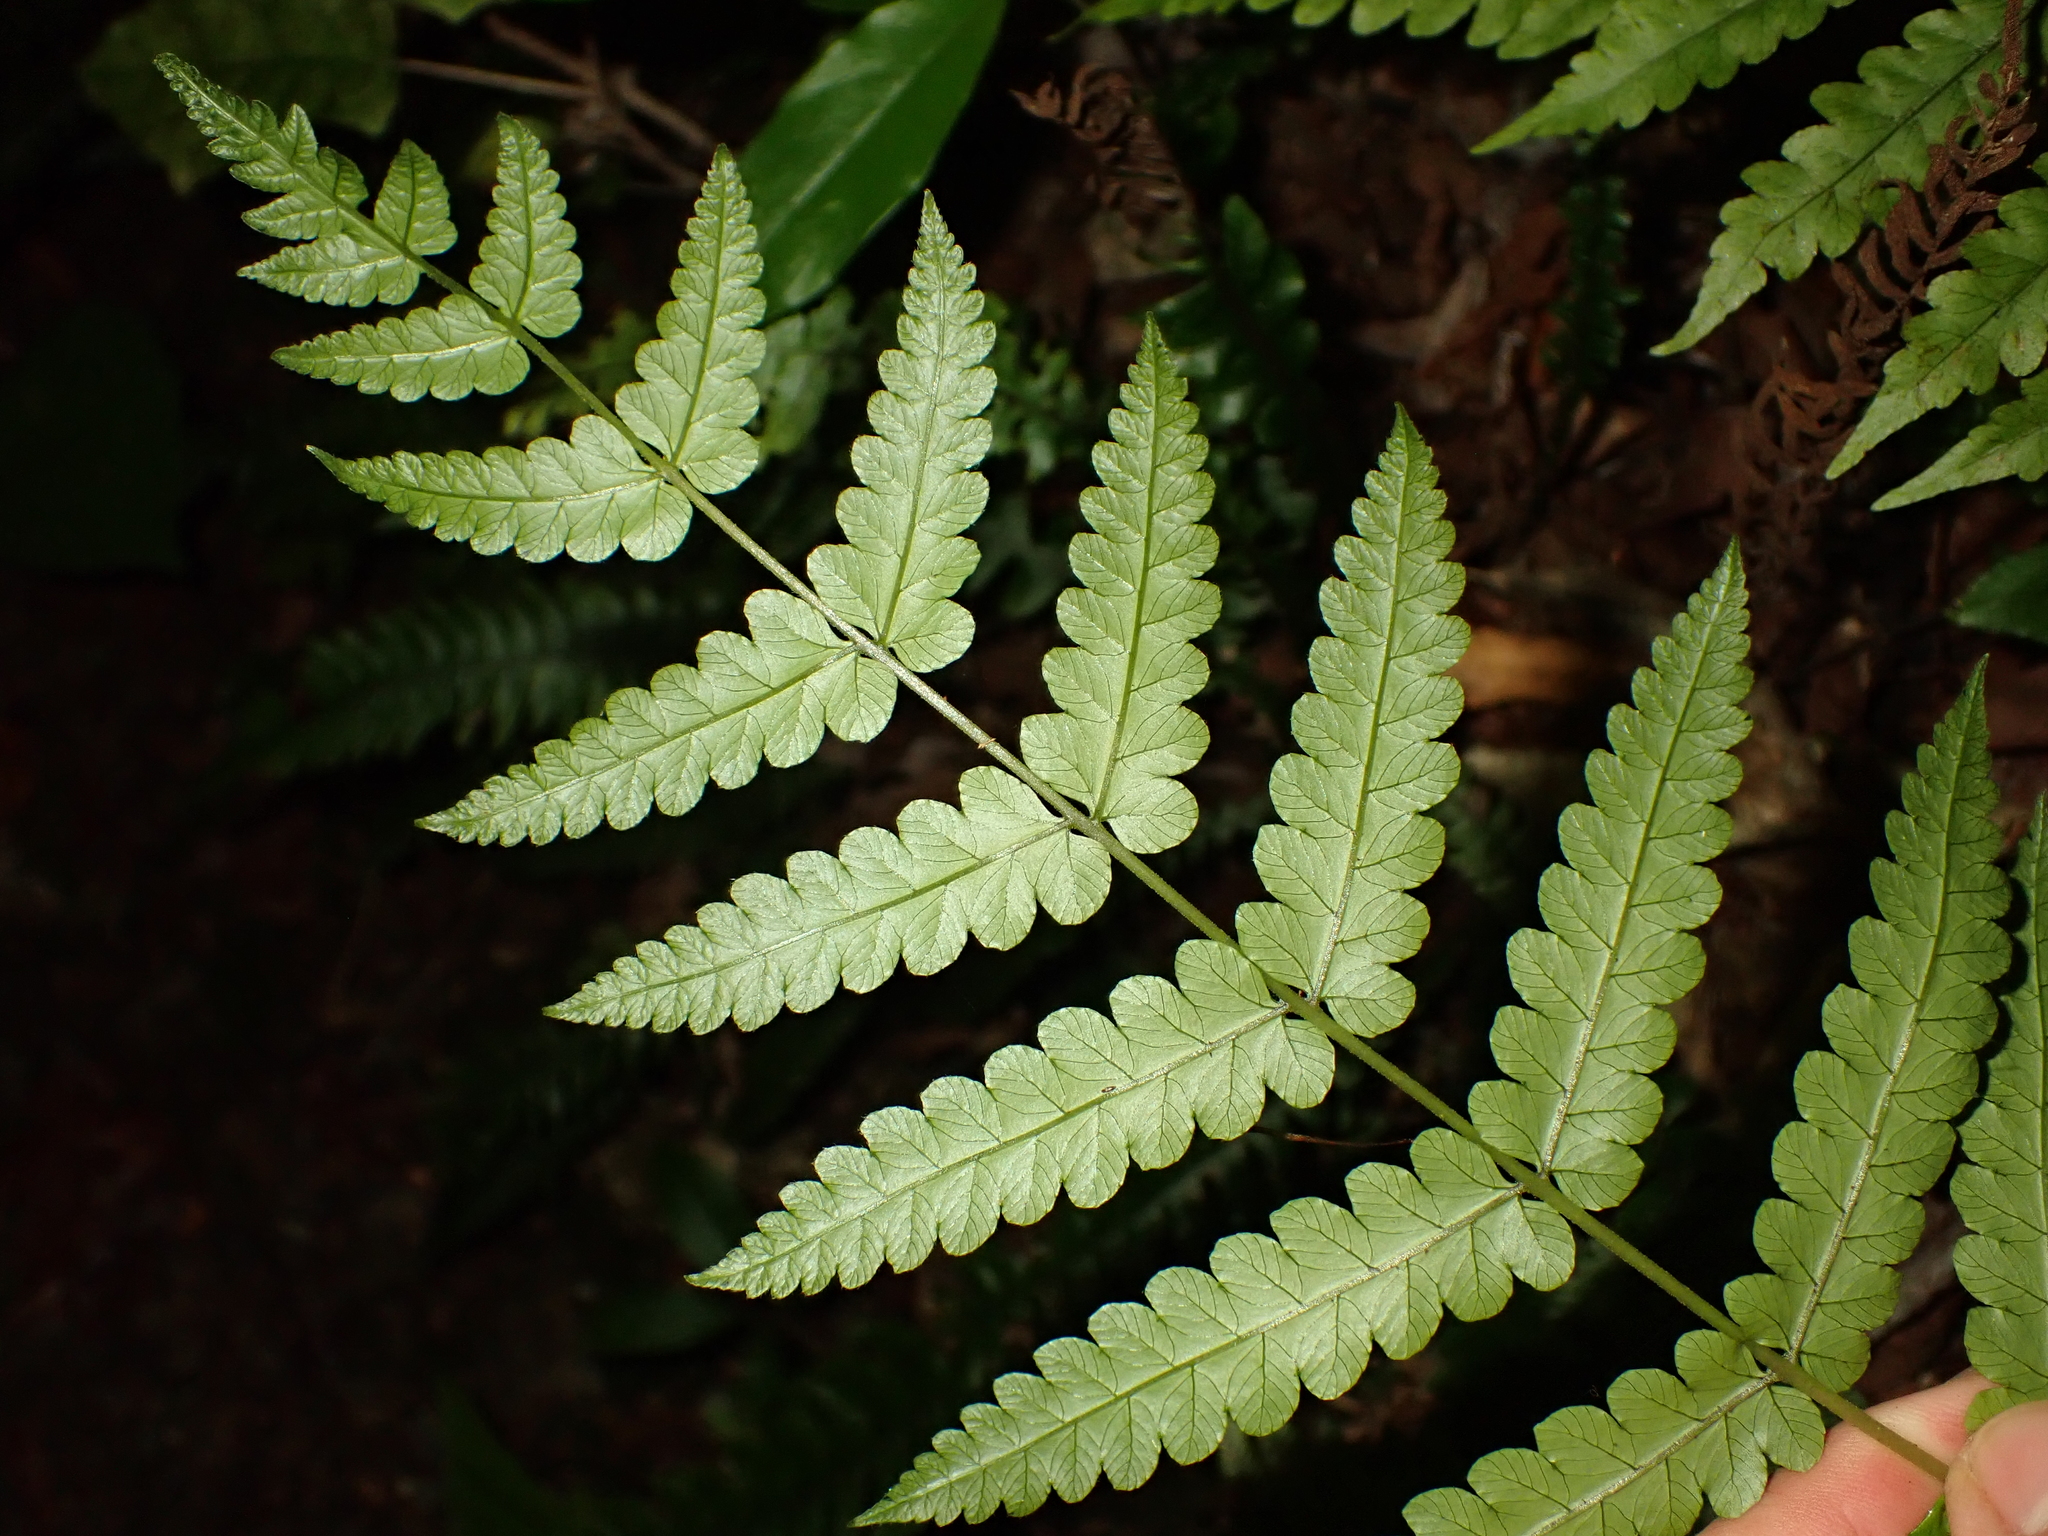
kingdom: Plantae
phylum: Tracheophyta
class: Polypodiopsida
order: Polypodiales
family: Thelypteridaceae
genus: Pakau
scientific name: Pakau pennigera
